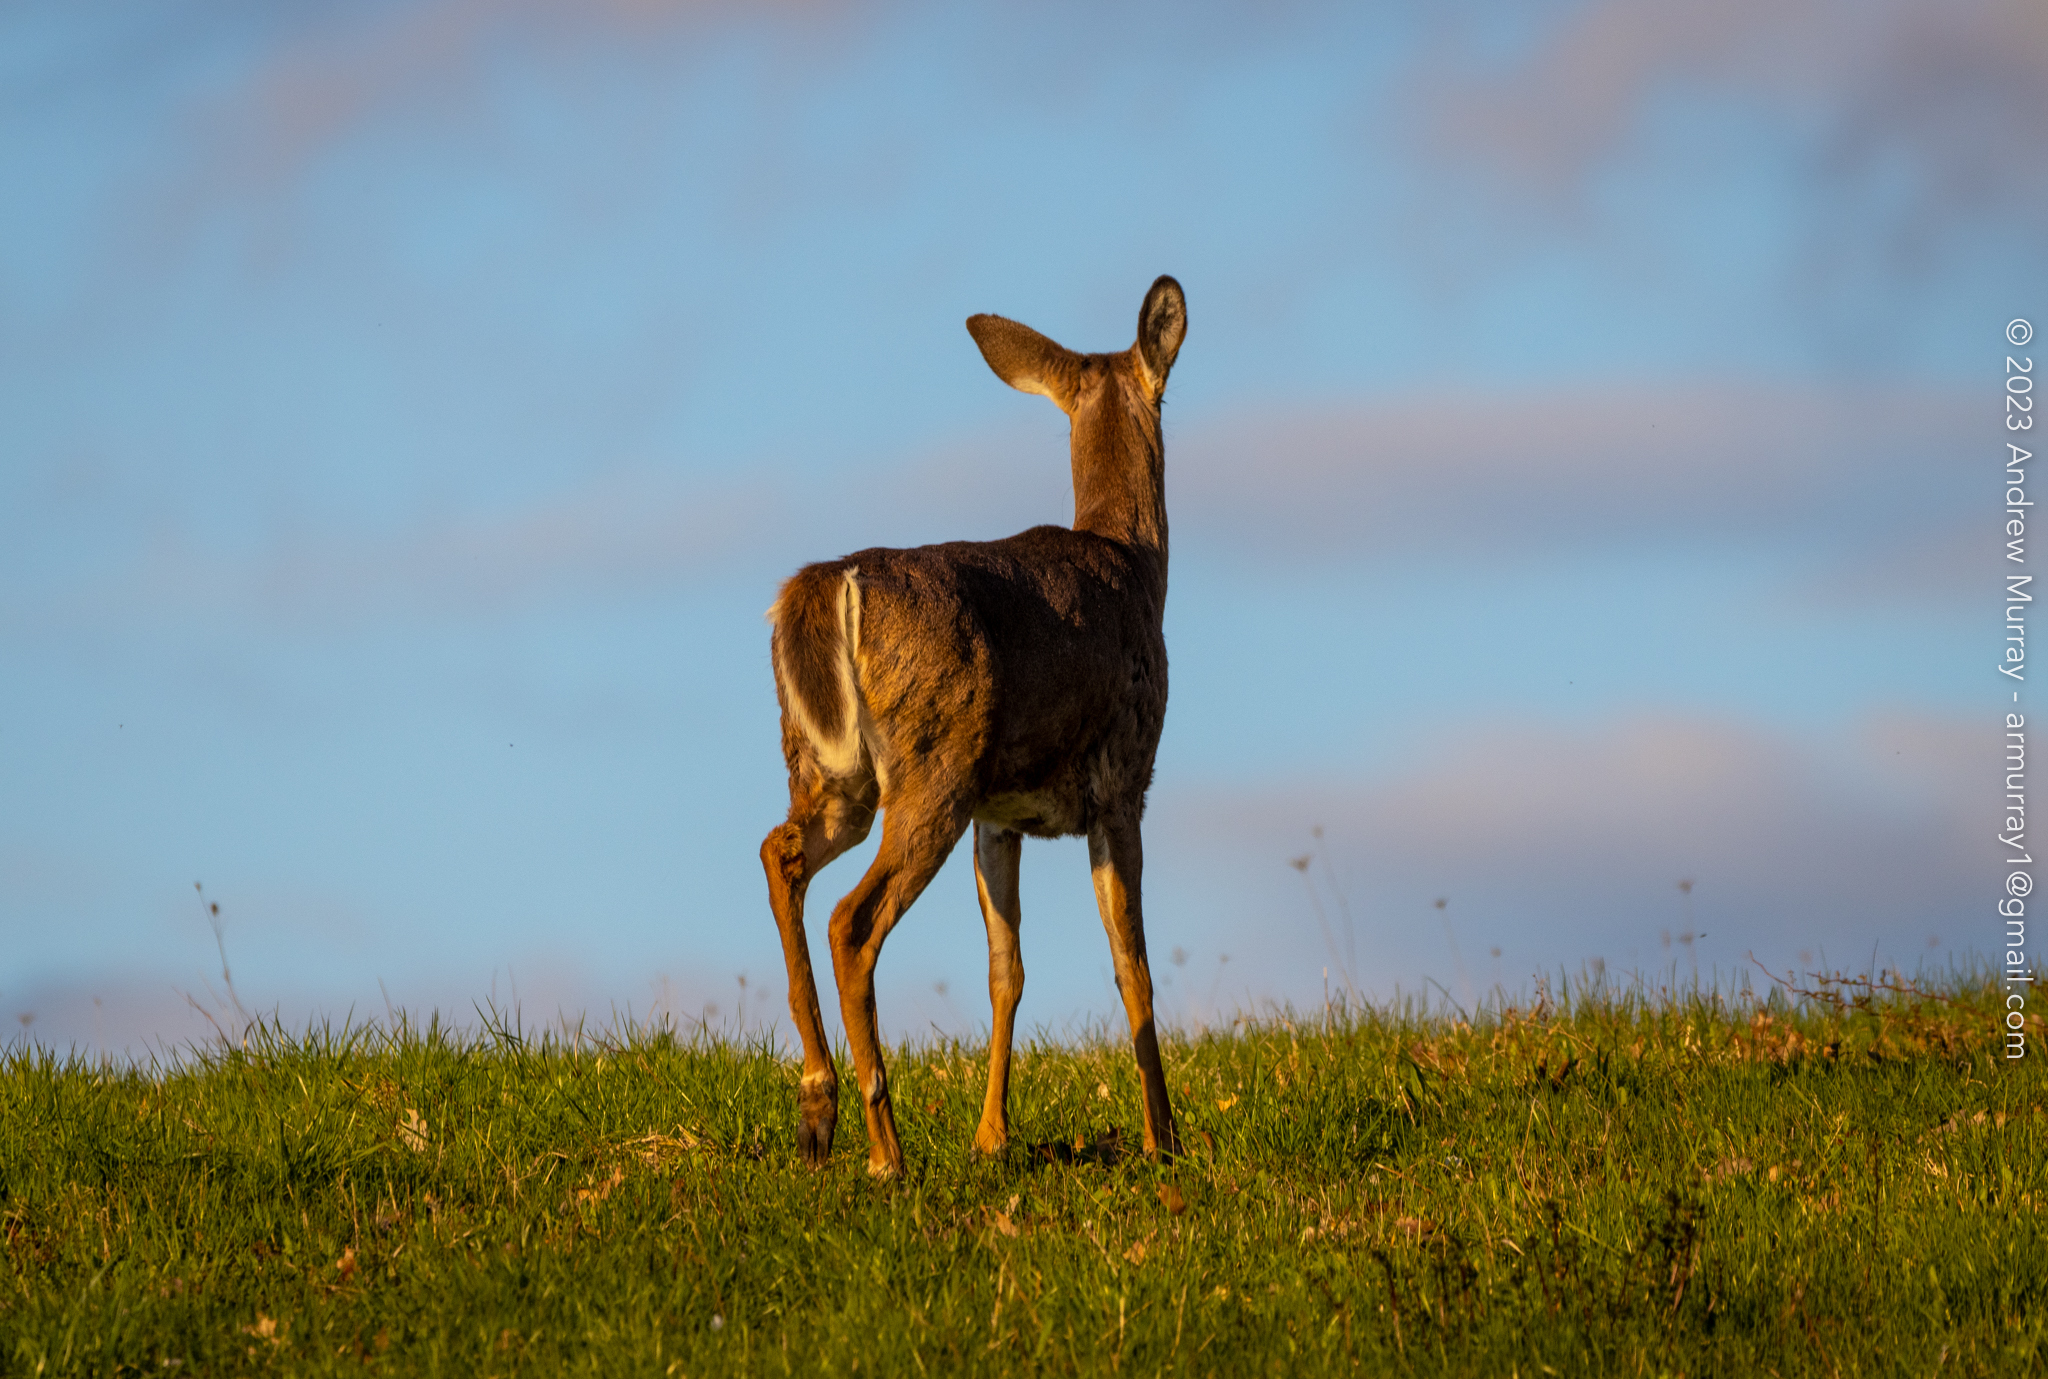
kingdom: Animalia
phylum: Chordata
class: Mammalia
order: Artiodactyla
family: Cervidae
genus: Odocoileus
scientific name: Odocoileus virginianus
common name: White-tailed deer
